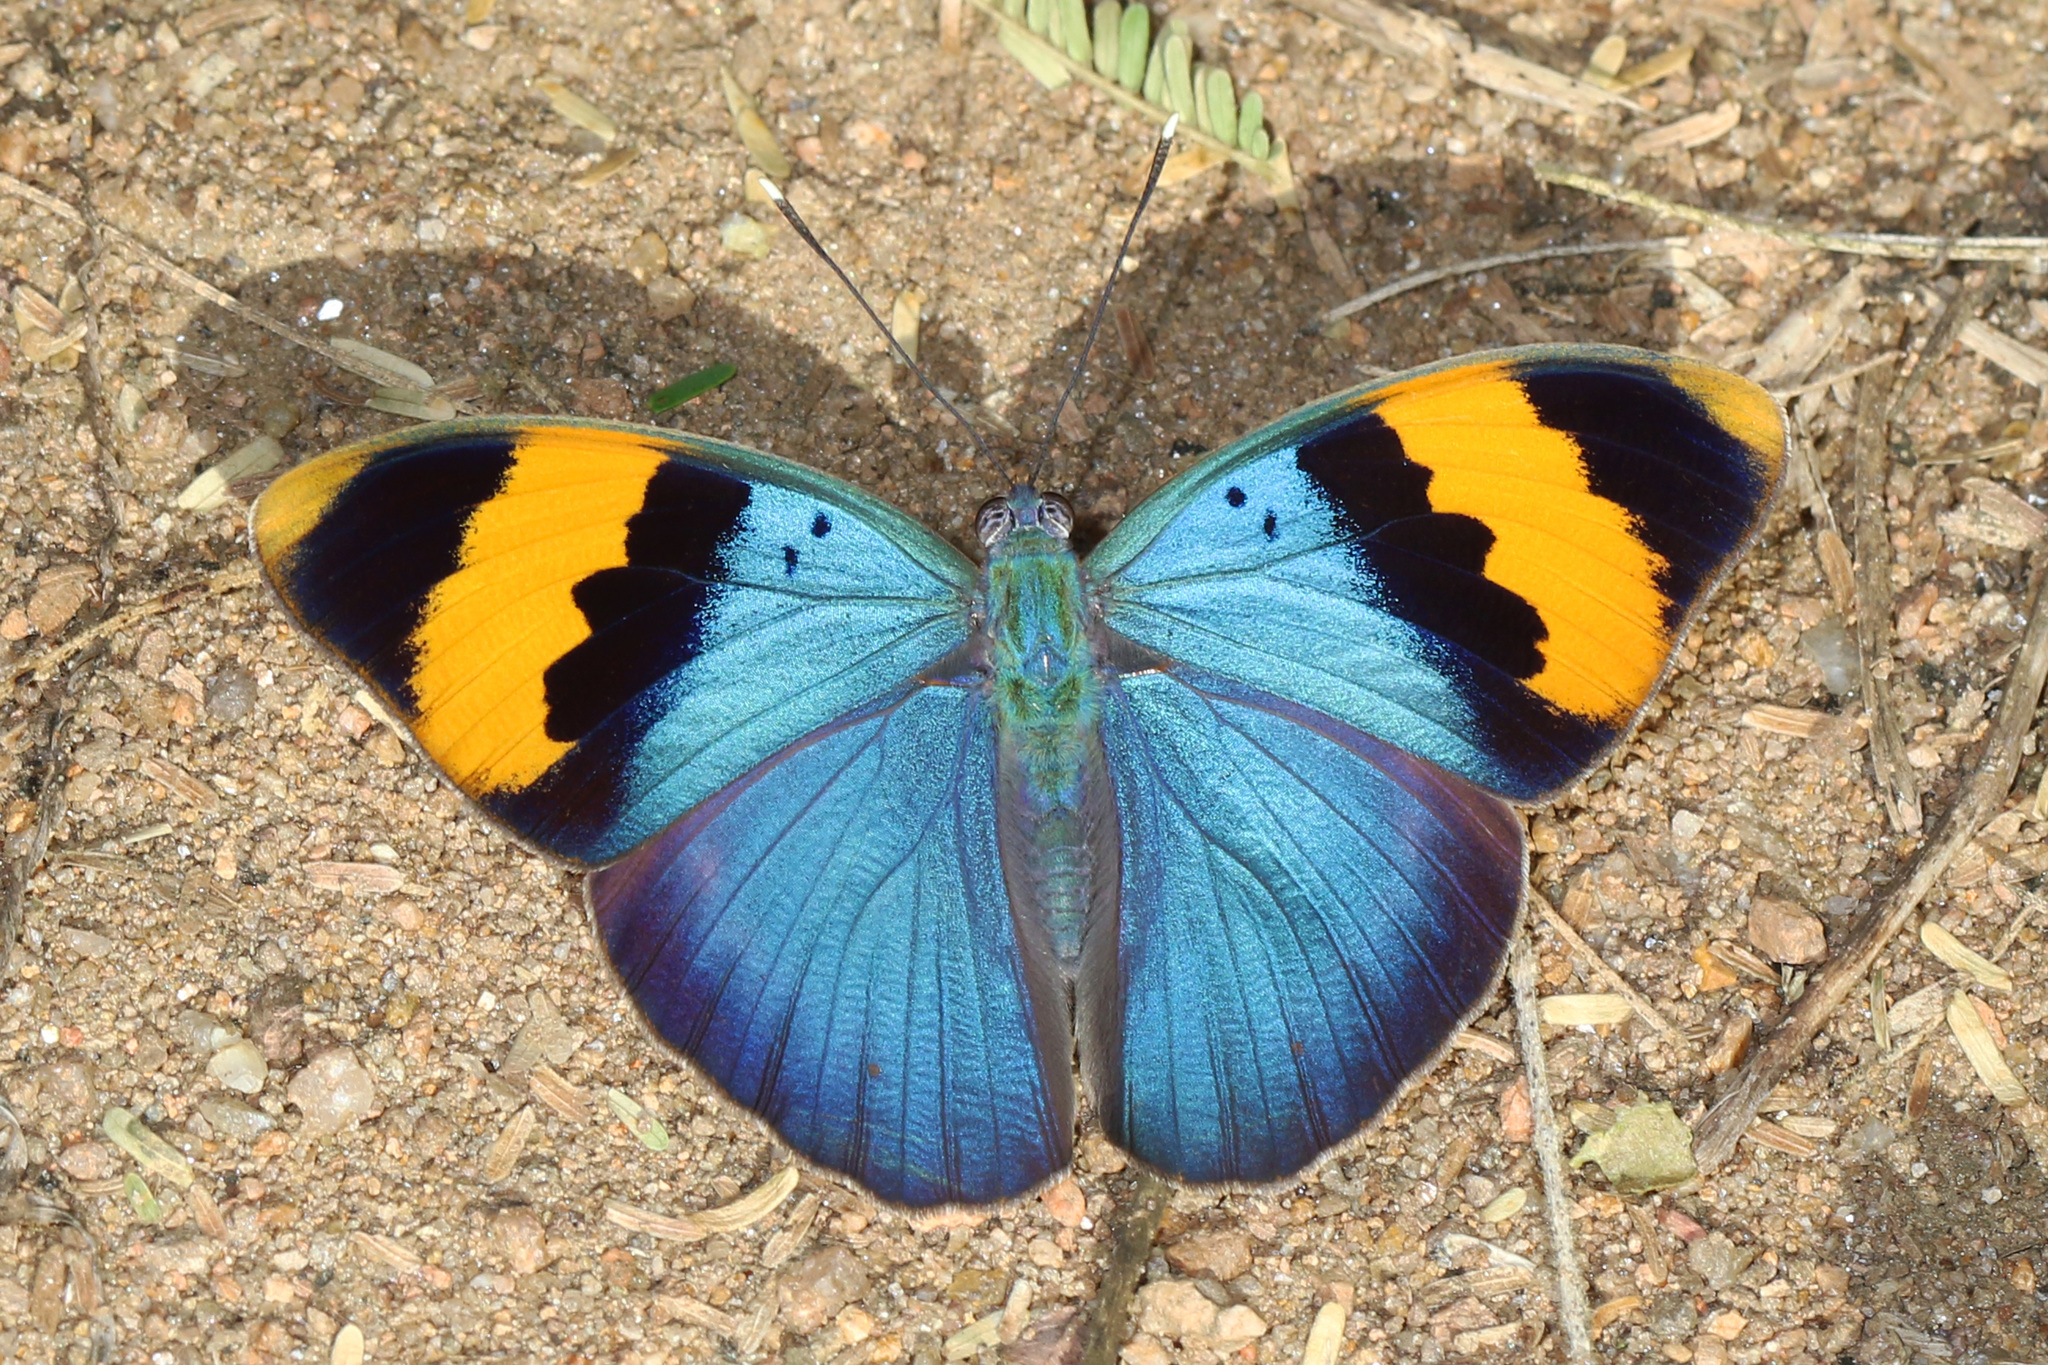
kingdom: Animalia
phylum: Arthropoda
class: Insecta
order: Lepidoptera
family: Nymphalidae
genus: Euphaedra
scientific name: Euphaedra neophron
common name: Gold-banded forester
